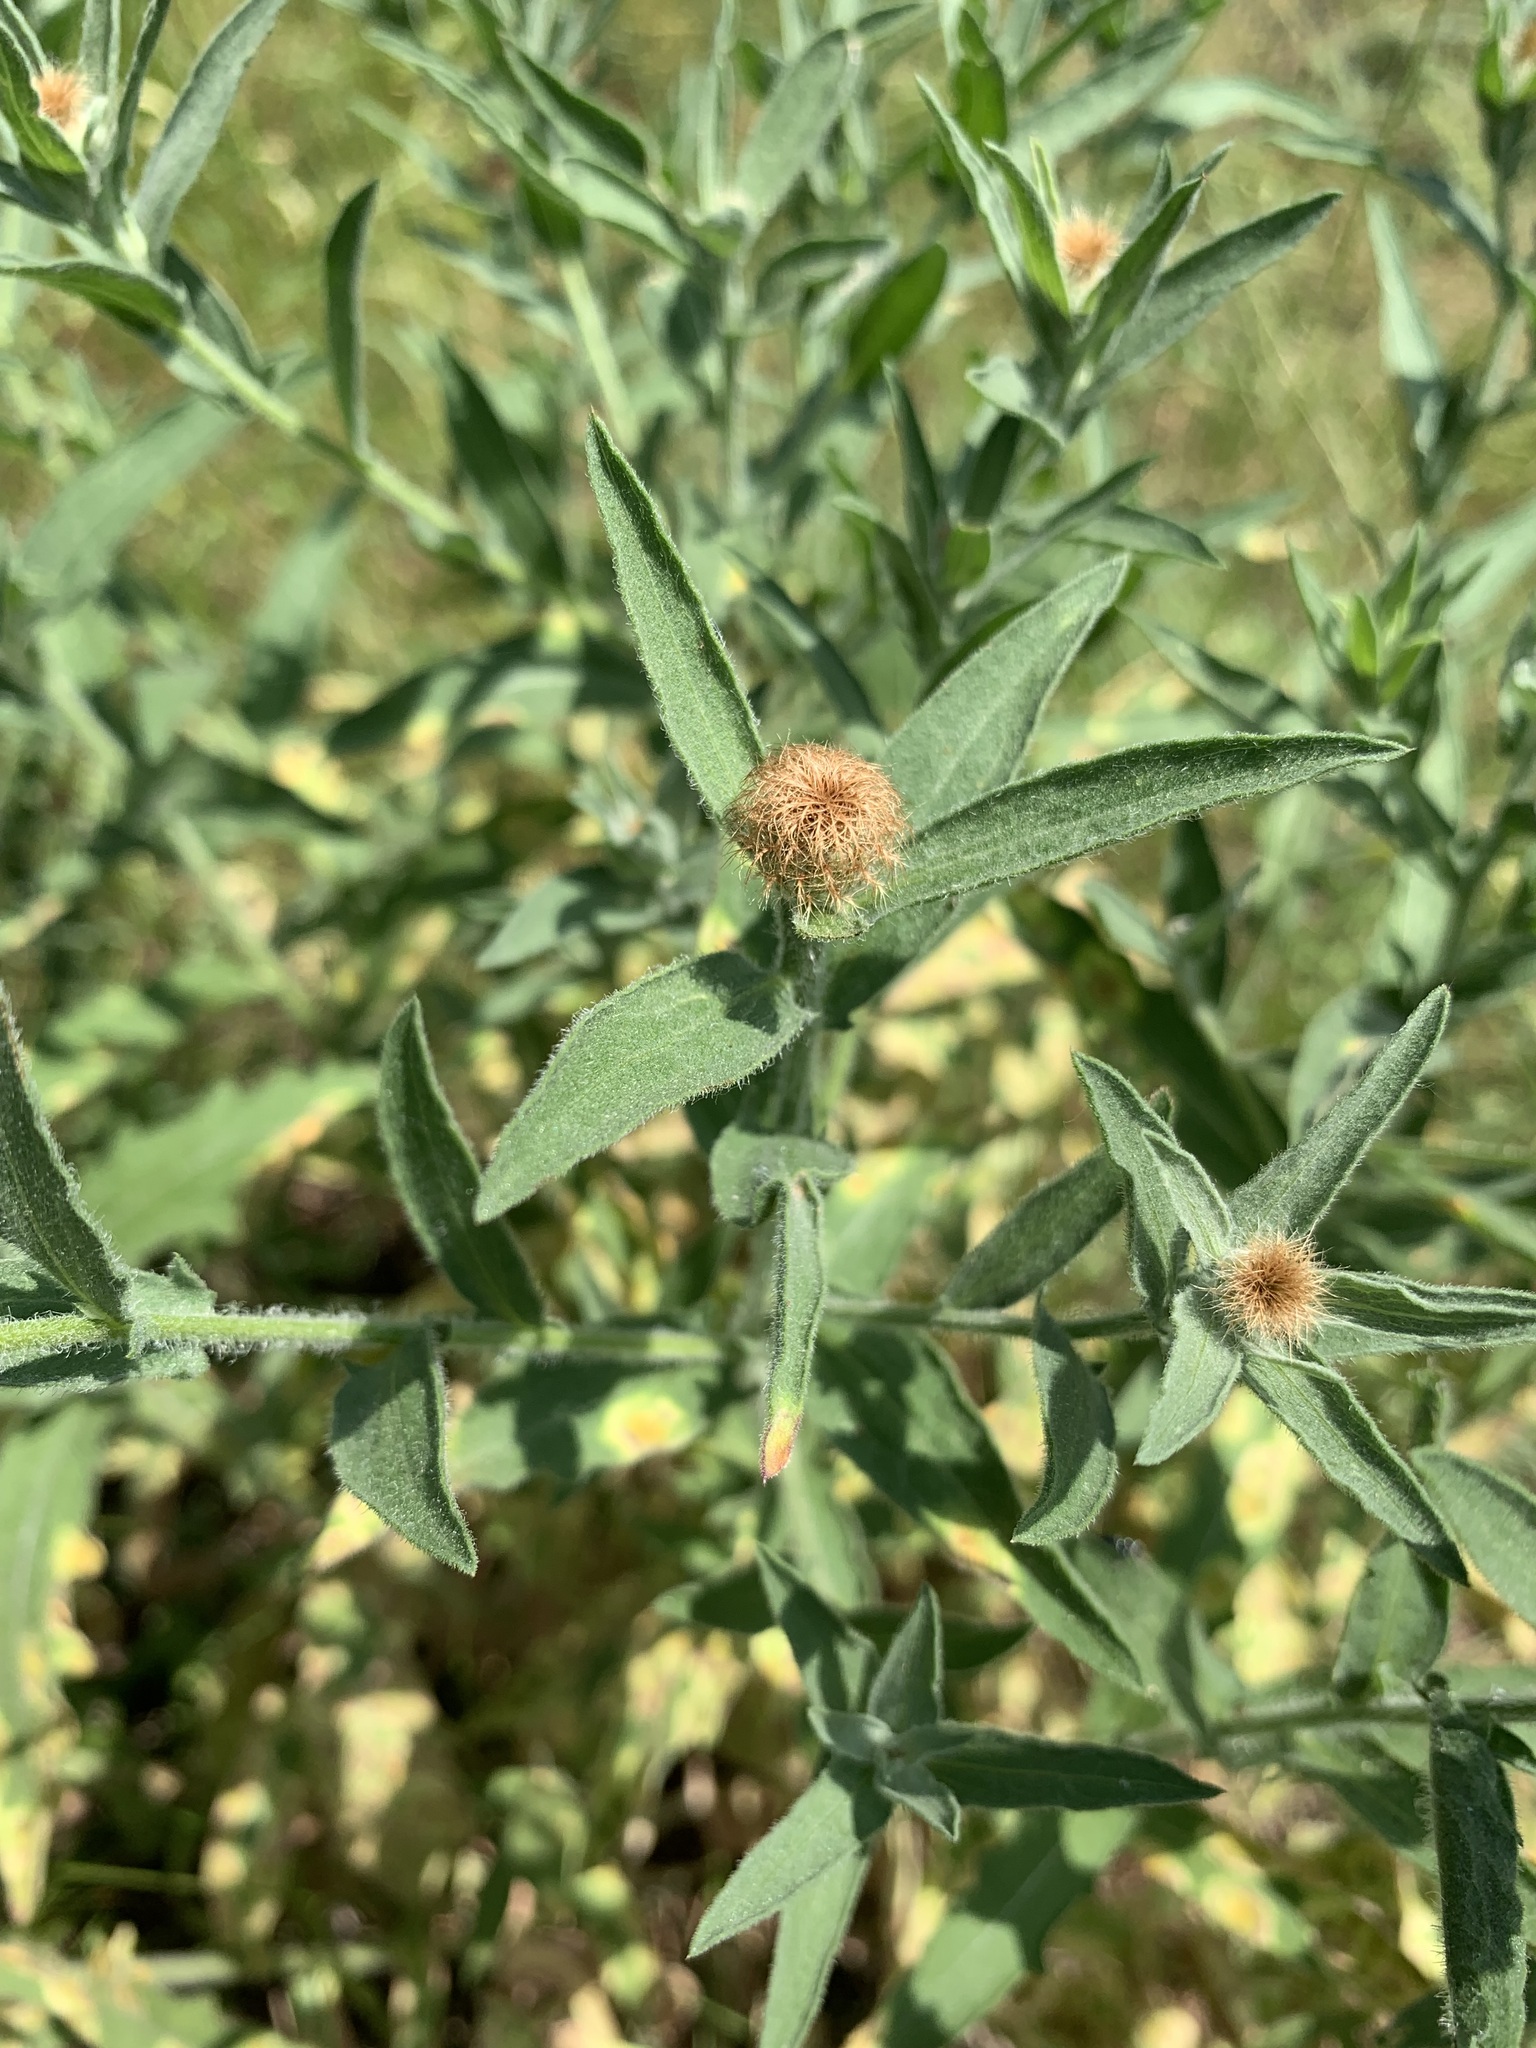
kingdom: Plantae
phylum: Tracheophyta
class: Magnoliopsida
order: Asterales
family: Asteraceae
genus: Centaurea
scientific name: Centaurea trichocephala
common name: Feather-head knapweed
